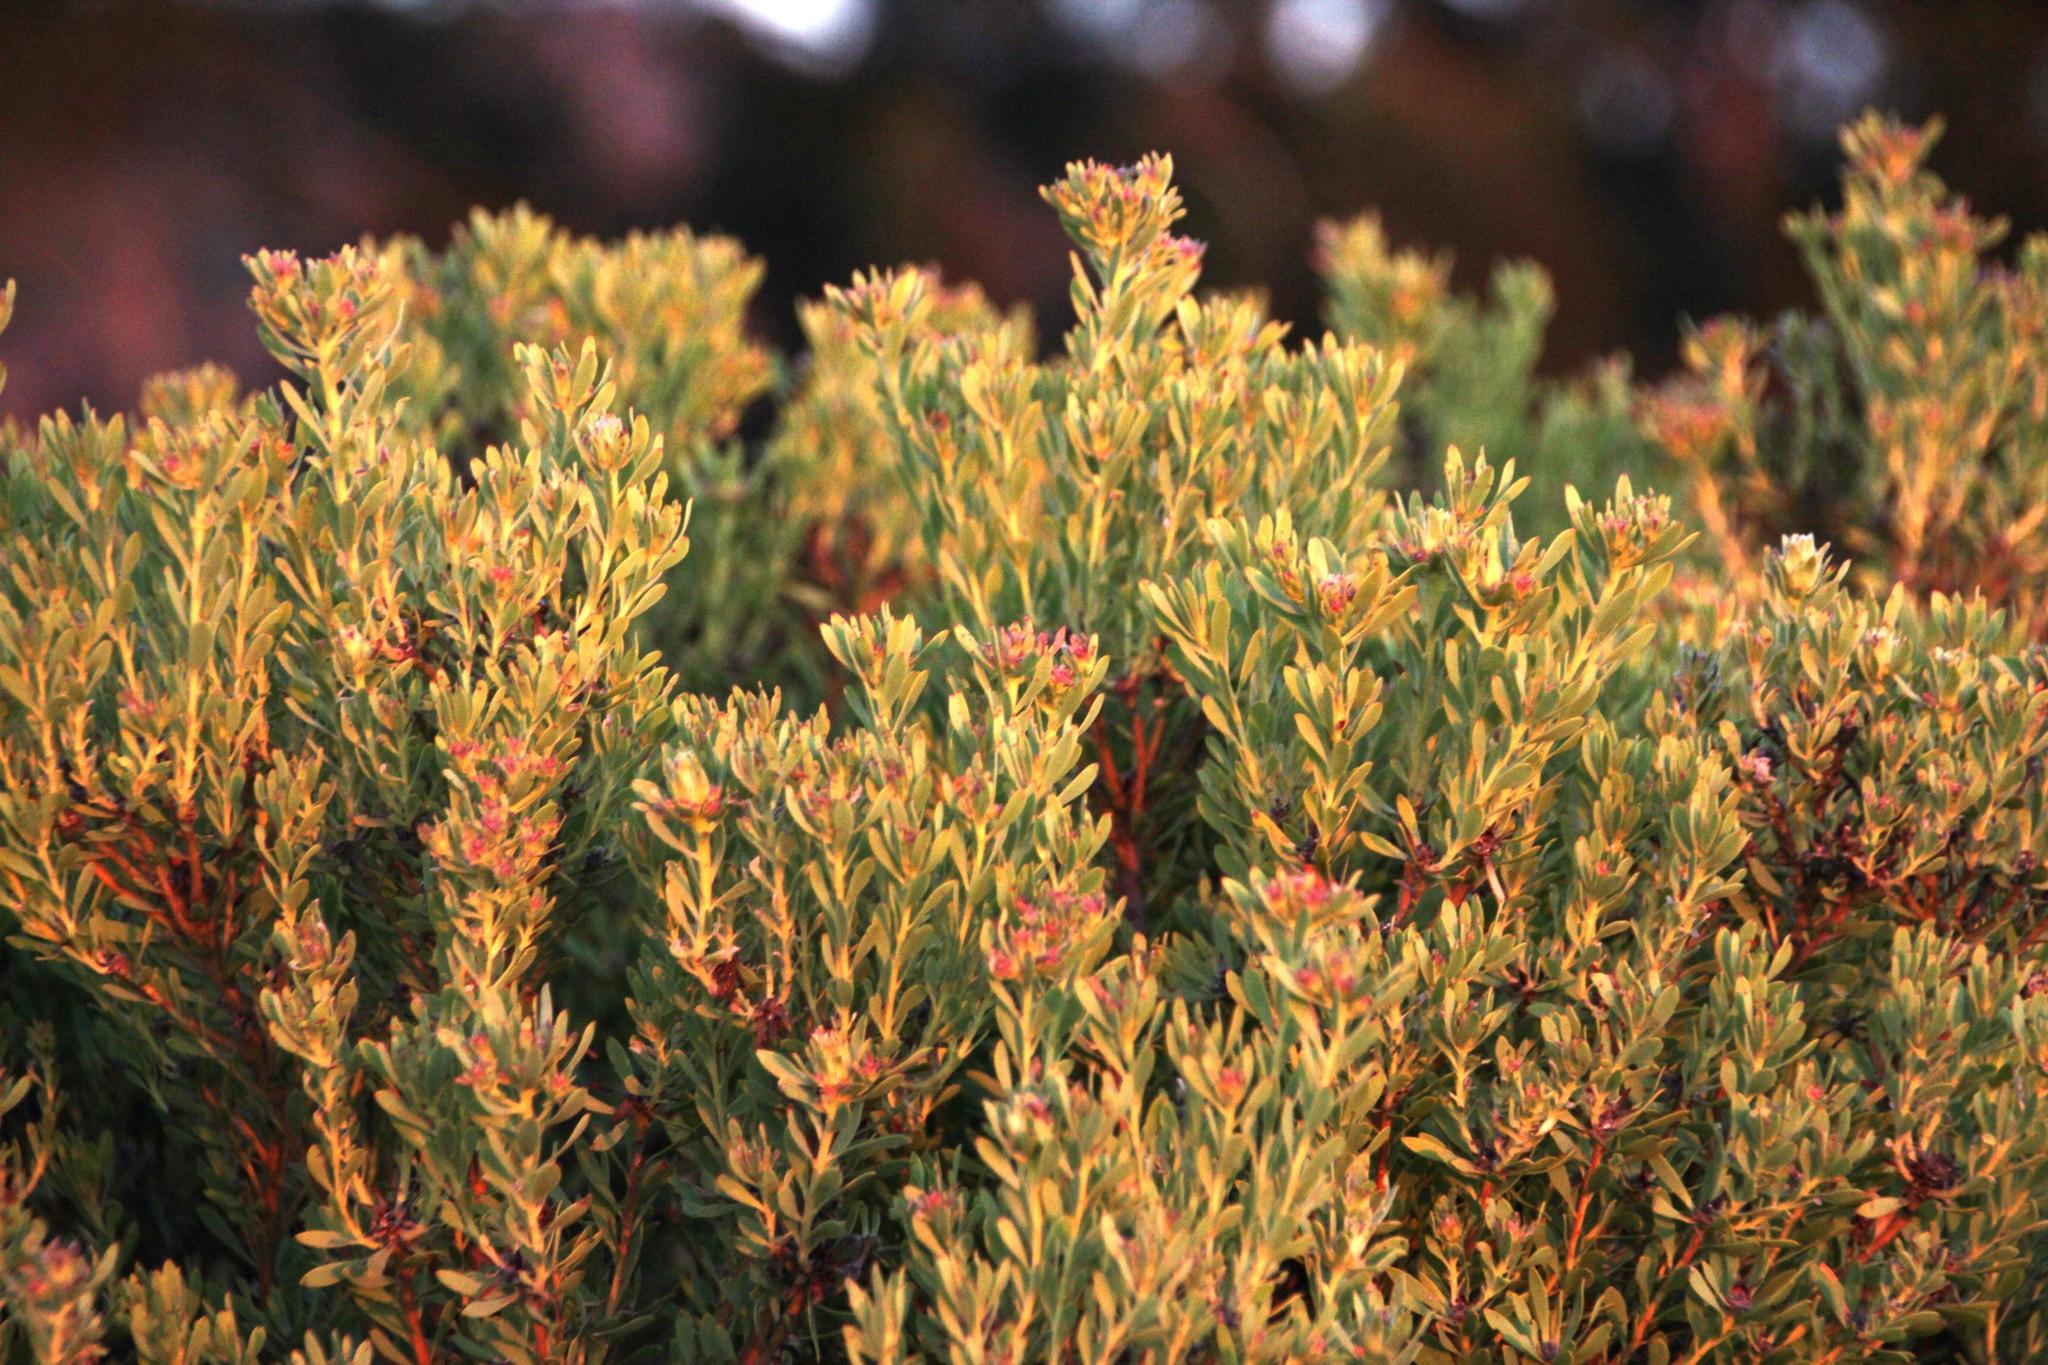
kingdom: Plantae
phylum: Tracheophyta
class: Magnoliopsida
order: Proteales
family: Proteaceae
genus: Leucadendron
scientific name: Leucadendron pubescens
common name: Grey conebush
